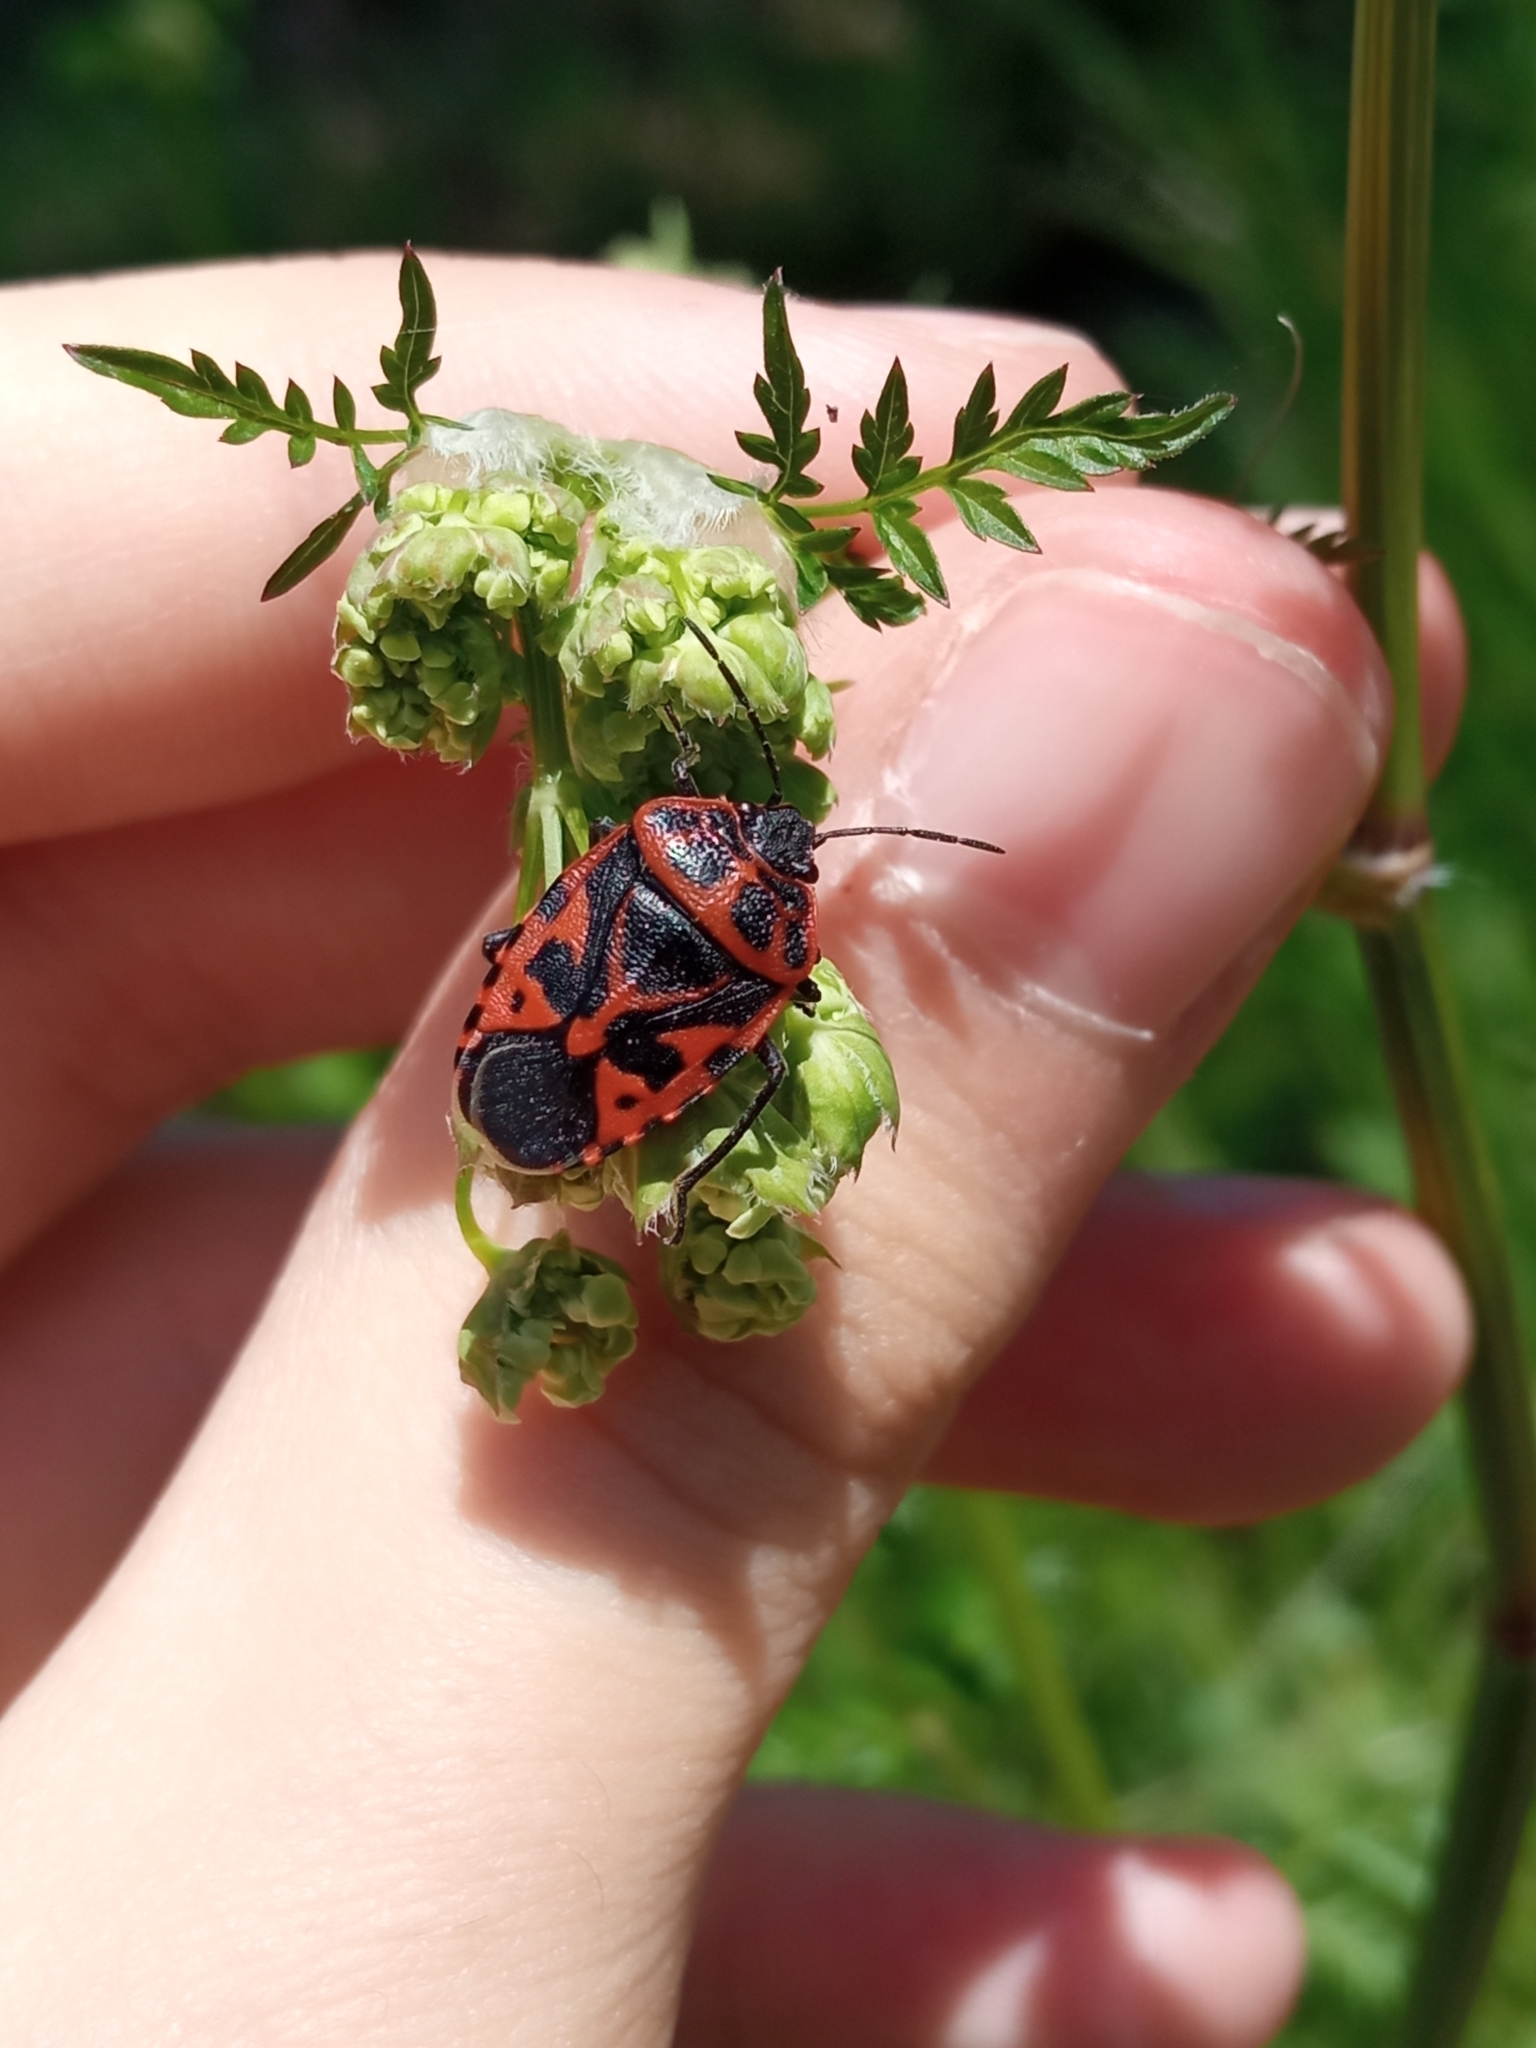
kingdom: Animalia
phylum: Arthropoda
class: Insecta
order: Hemiptera
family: Pentatomidae
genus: Eurydema
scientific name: Eurydema ventralis
